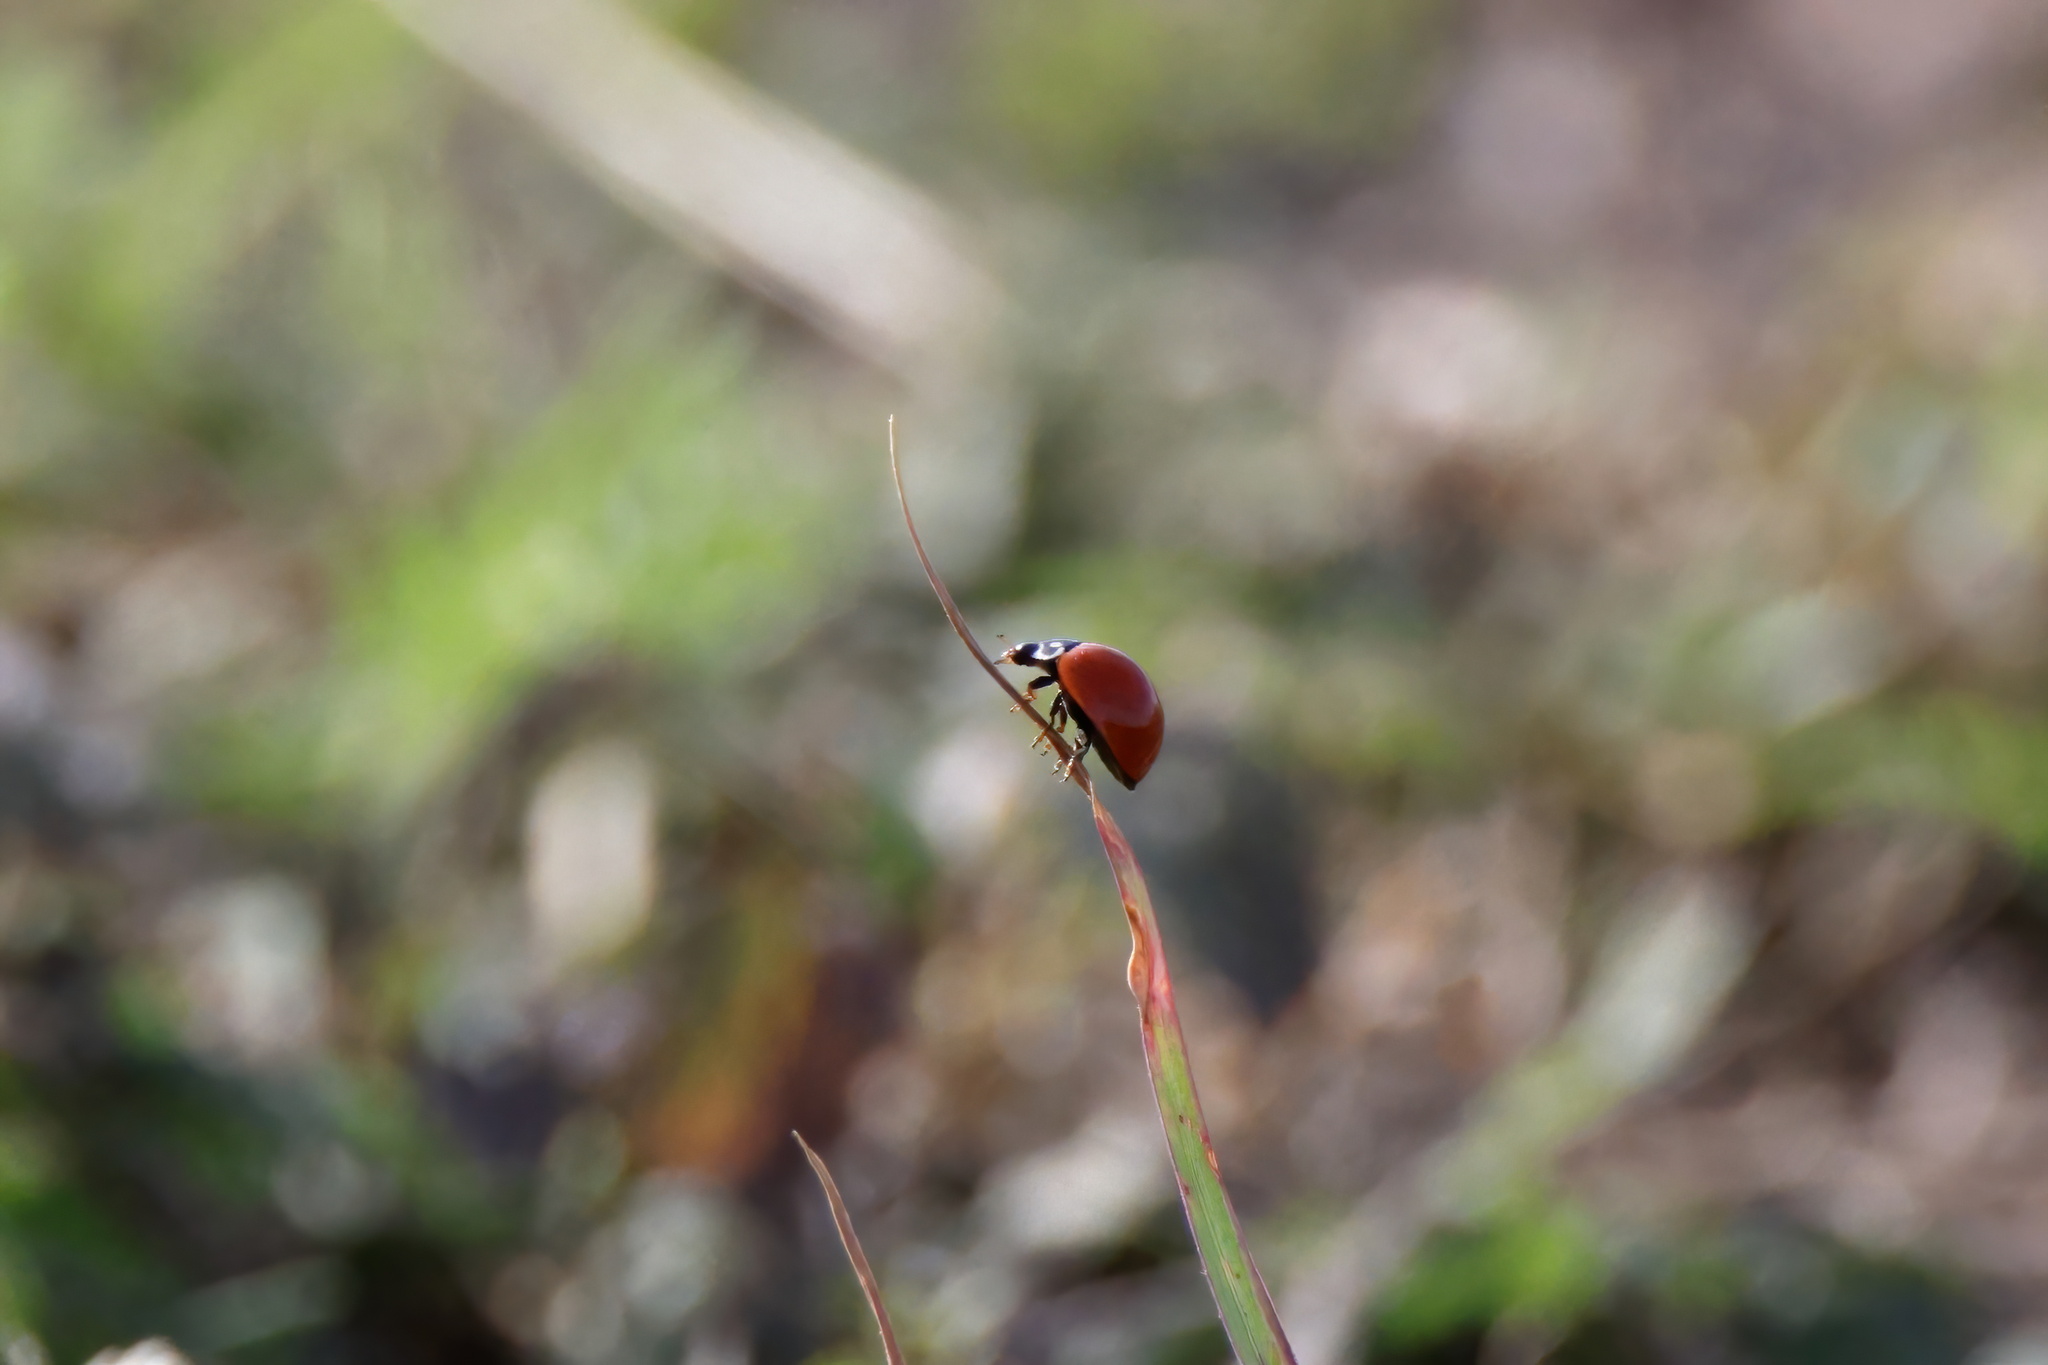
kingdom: Animalia
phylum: Arthropoda
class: Insecta
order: Coleoptera
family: Coccinellidae
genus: Cycloneda
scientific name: Cycloneda sanguinea
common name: Ladybird beetle
